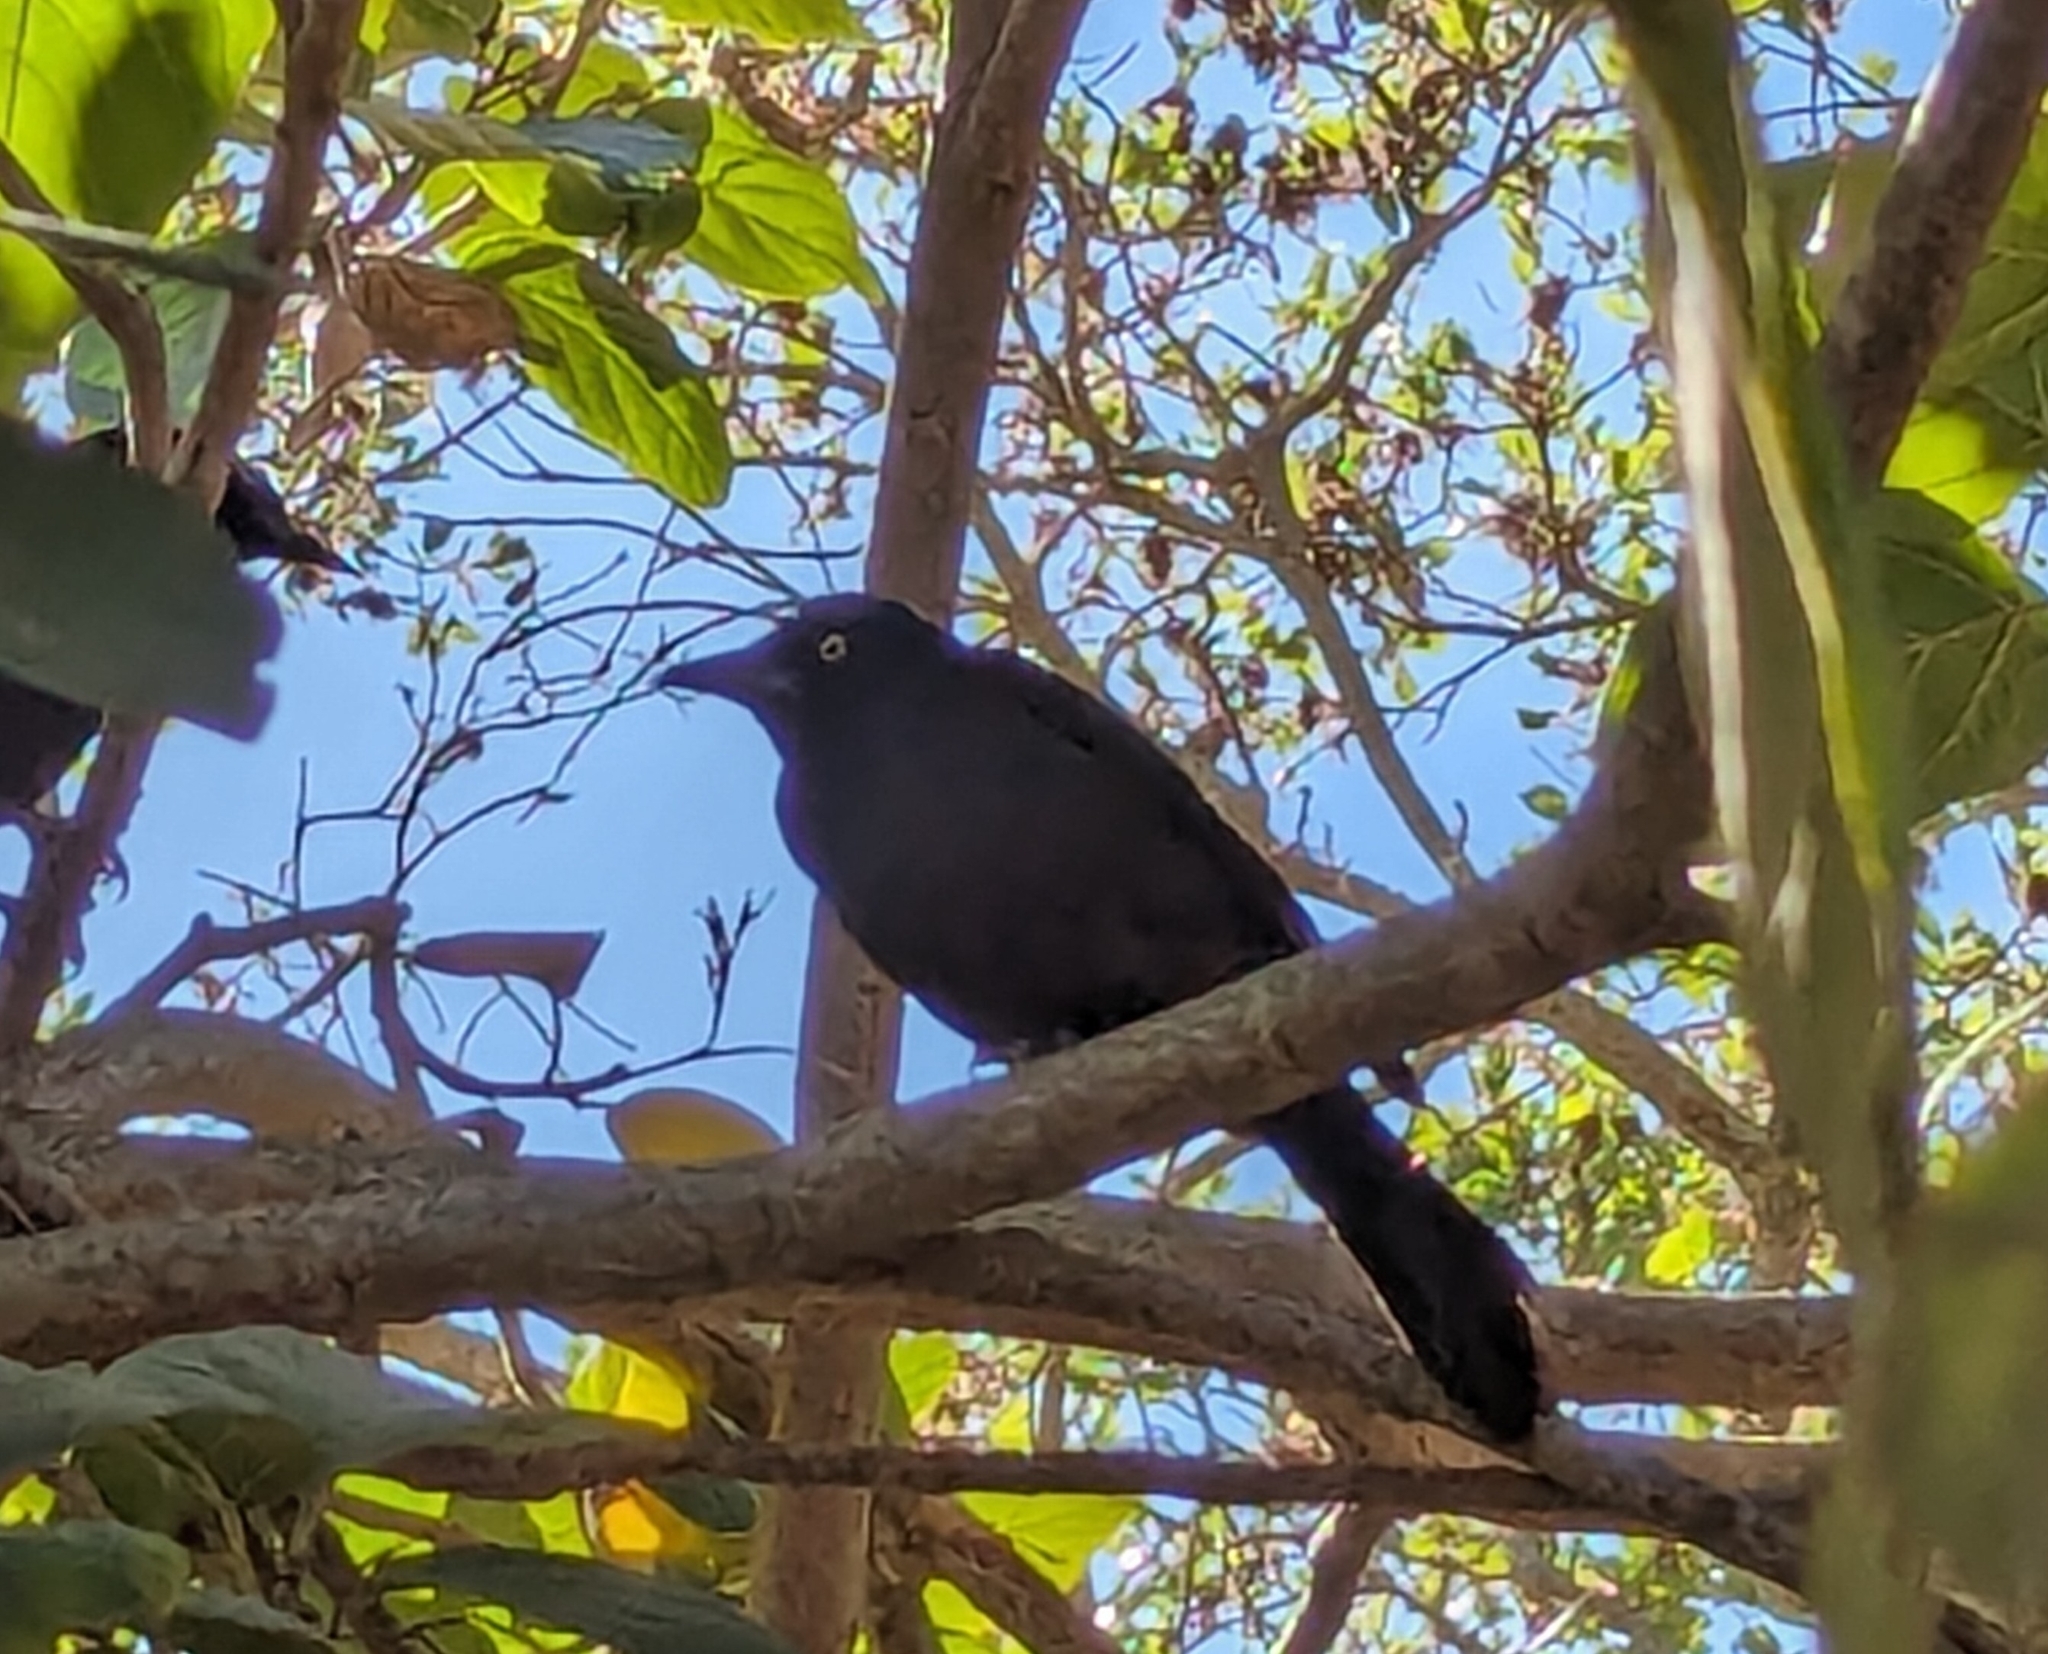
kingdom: Animalia
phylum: Chordata
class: Aves
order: Passeriformes
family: Icteridae
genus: Quiscalus
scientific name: Quiscalus quiscula
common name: Common grackle
